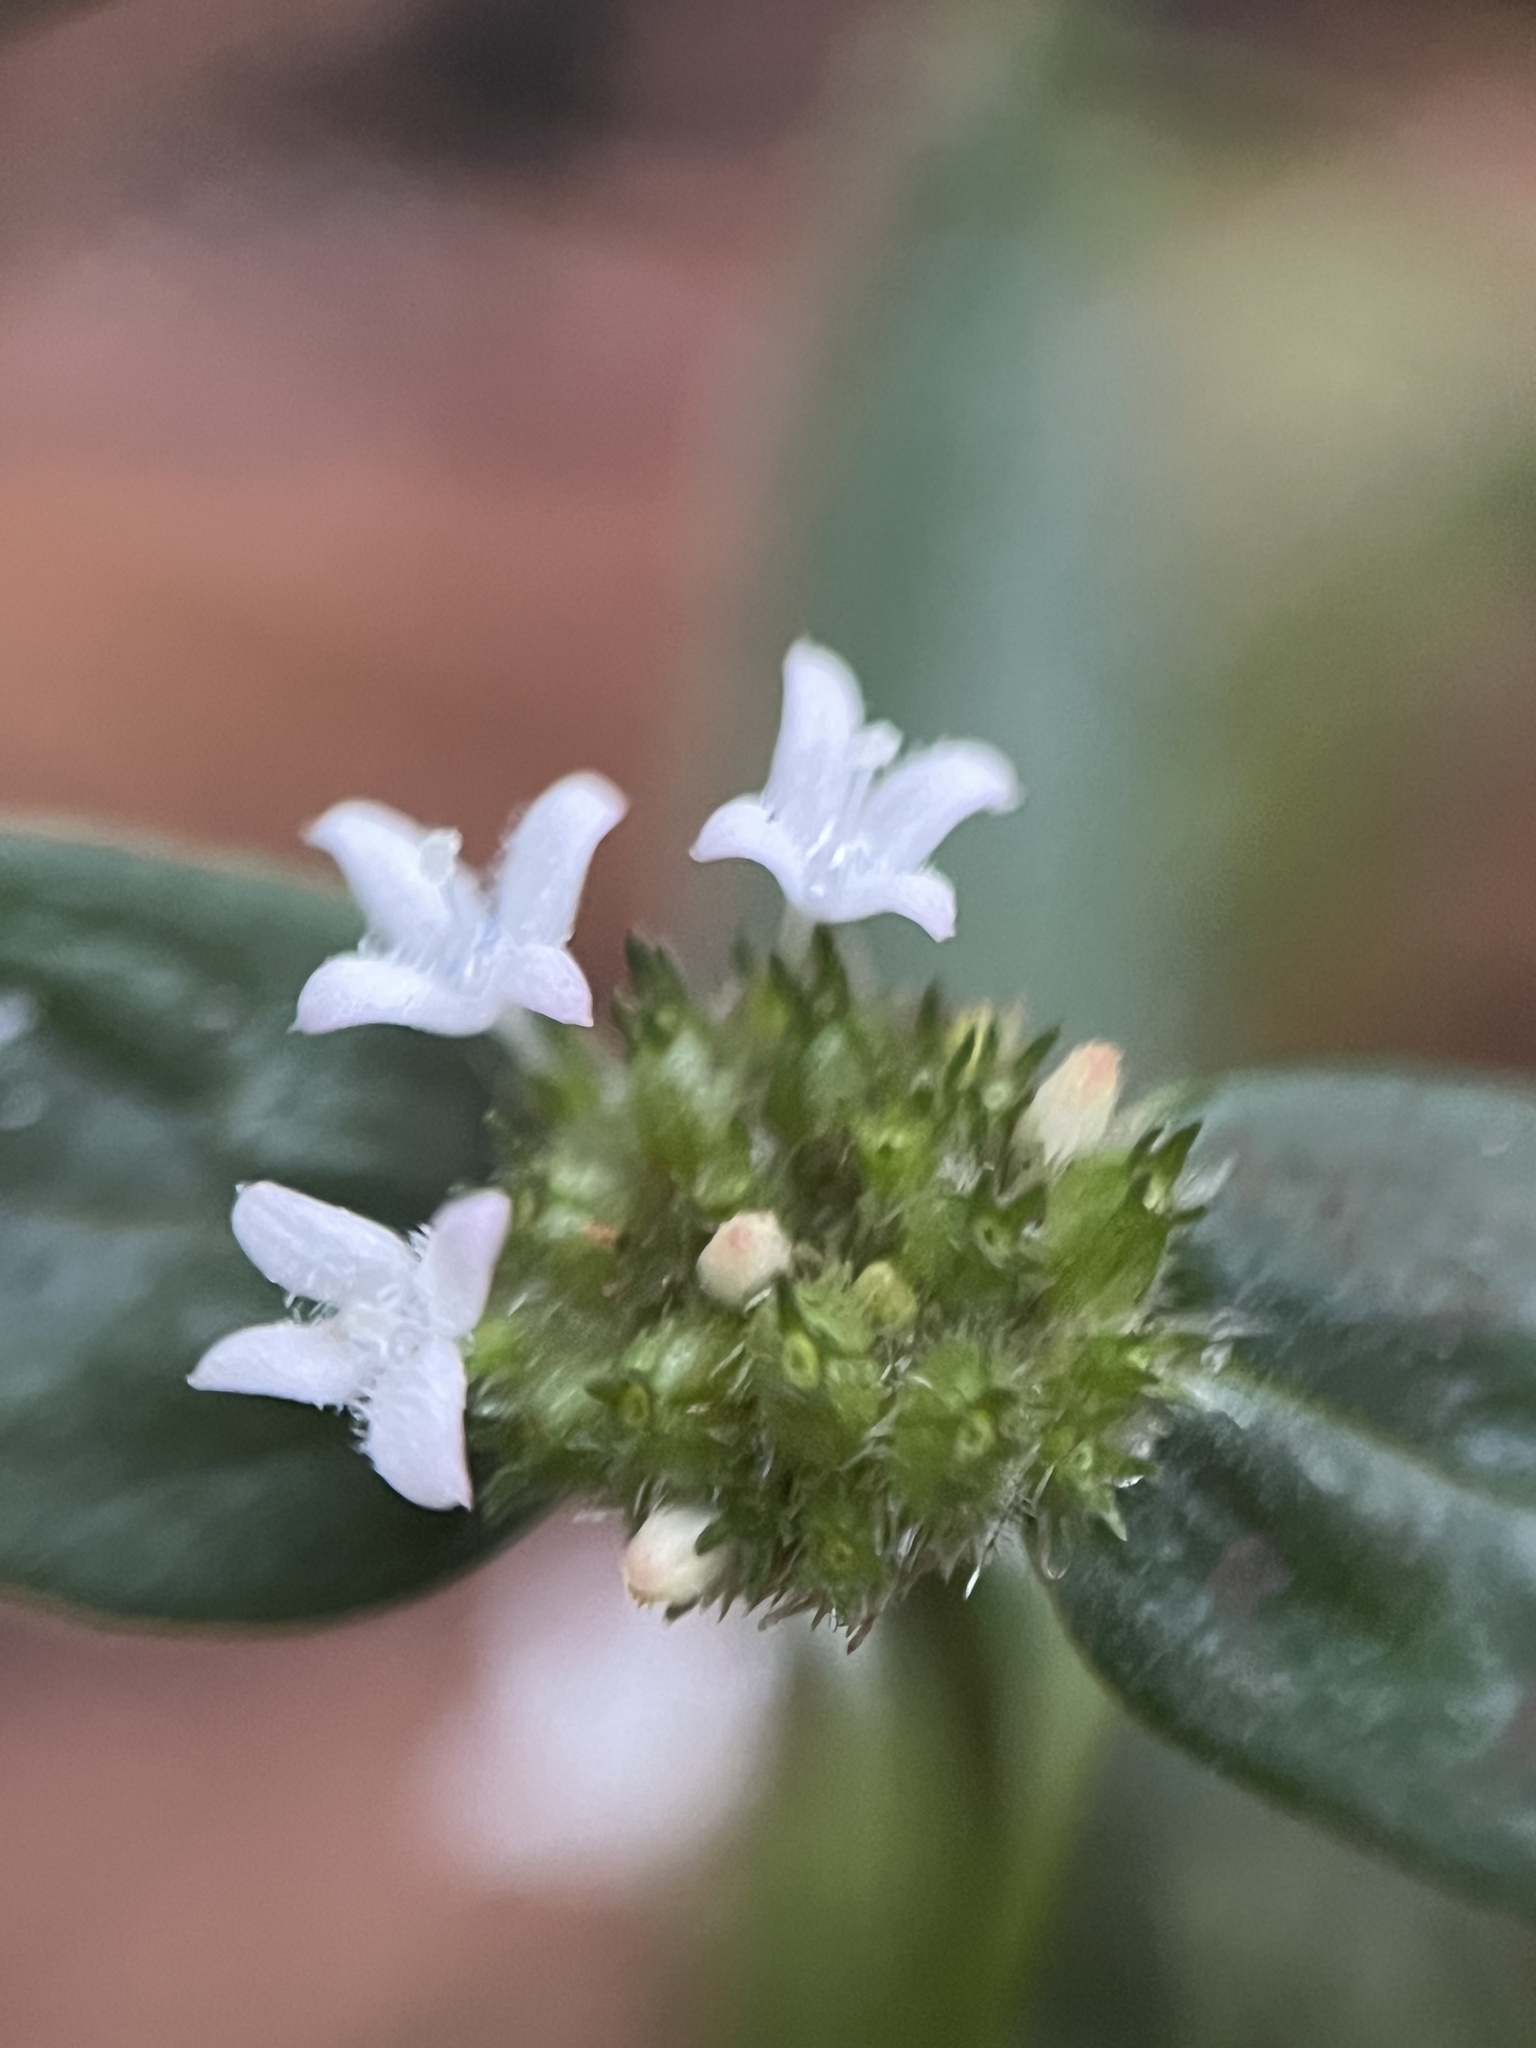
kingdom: Plantae
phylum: Tracheophyta
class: Magnoliopsida
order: Gentianales
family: Rubiaceae
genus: Spermacoce
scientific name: Spermacoce remota
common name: Woodland false buttonweed
